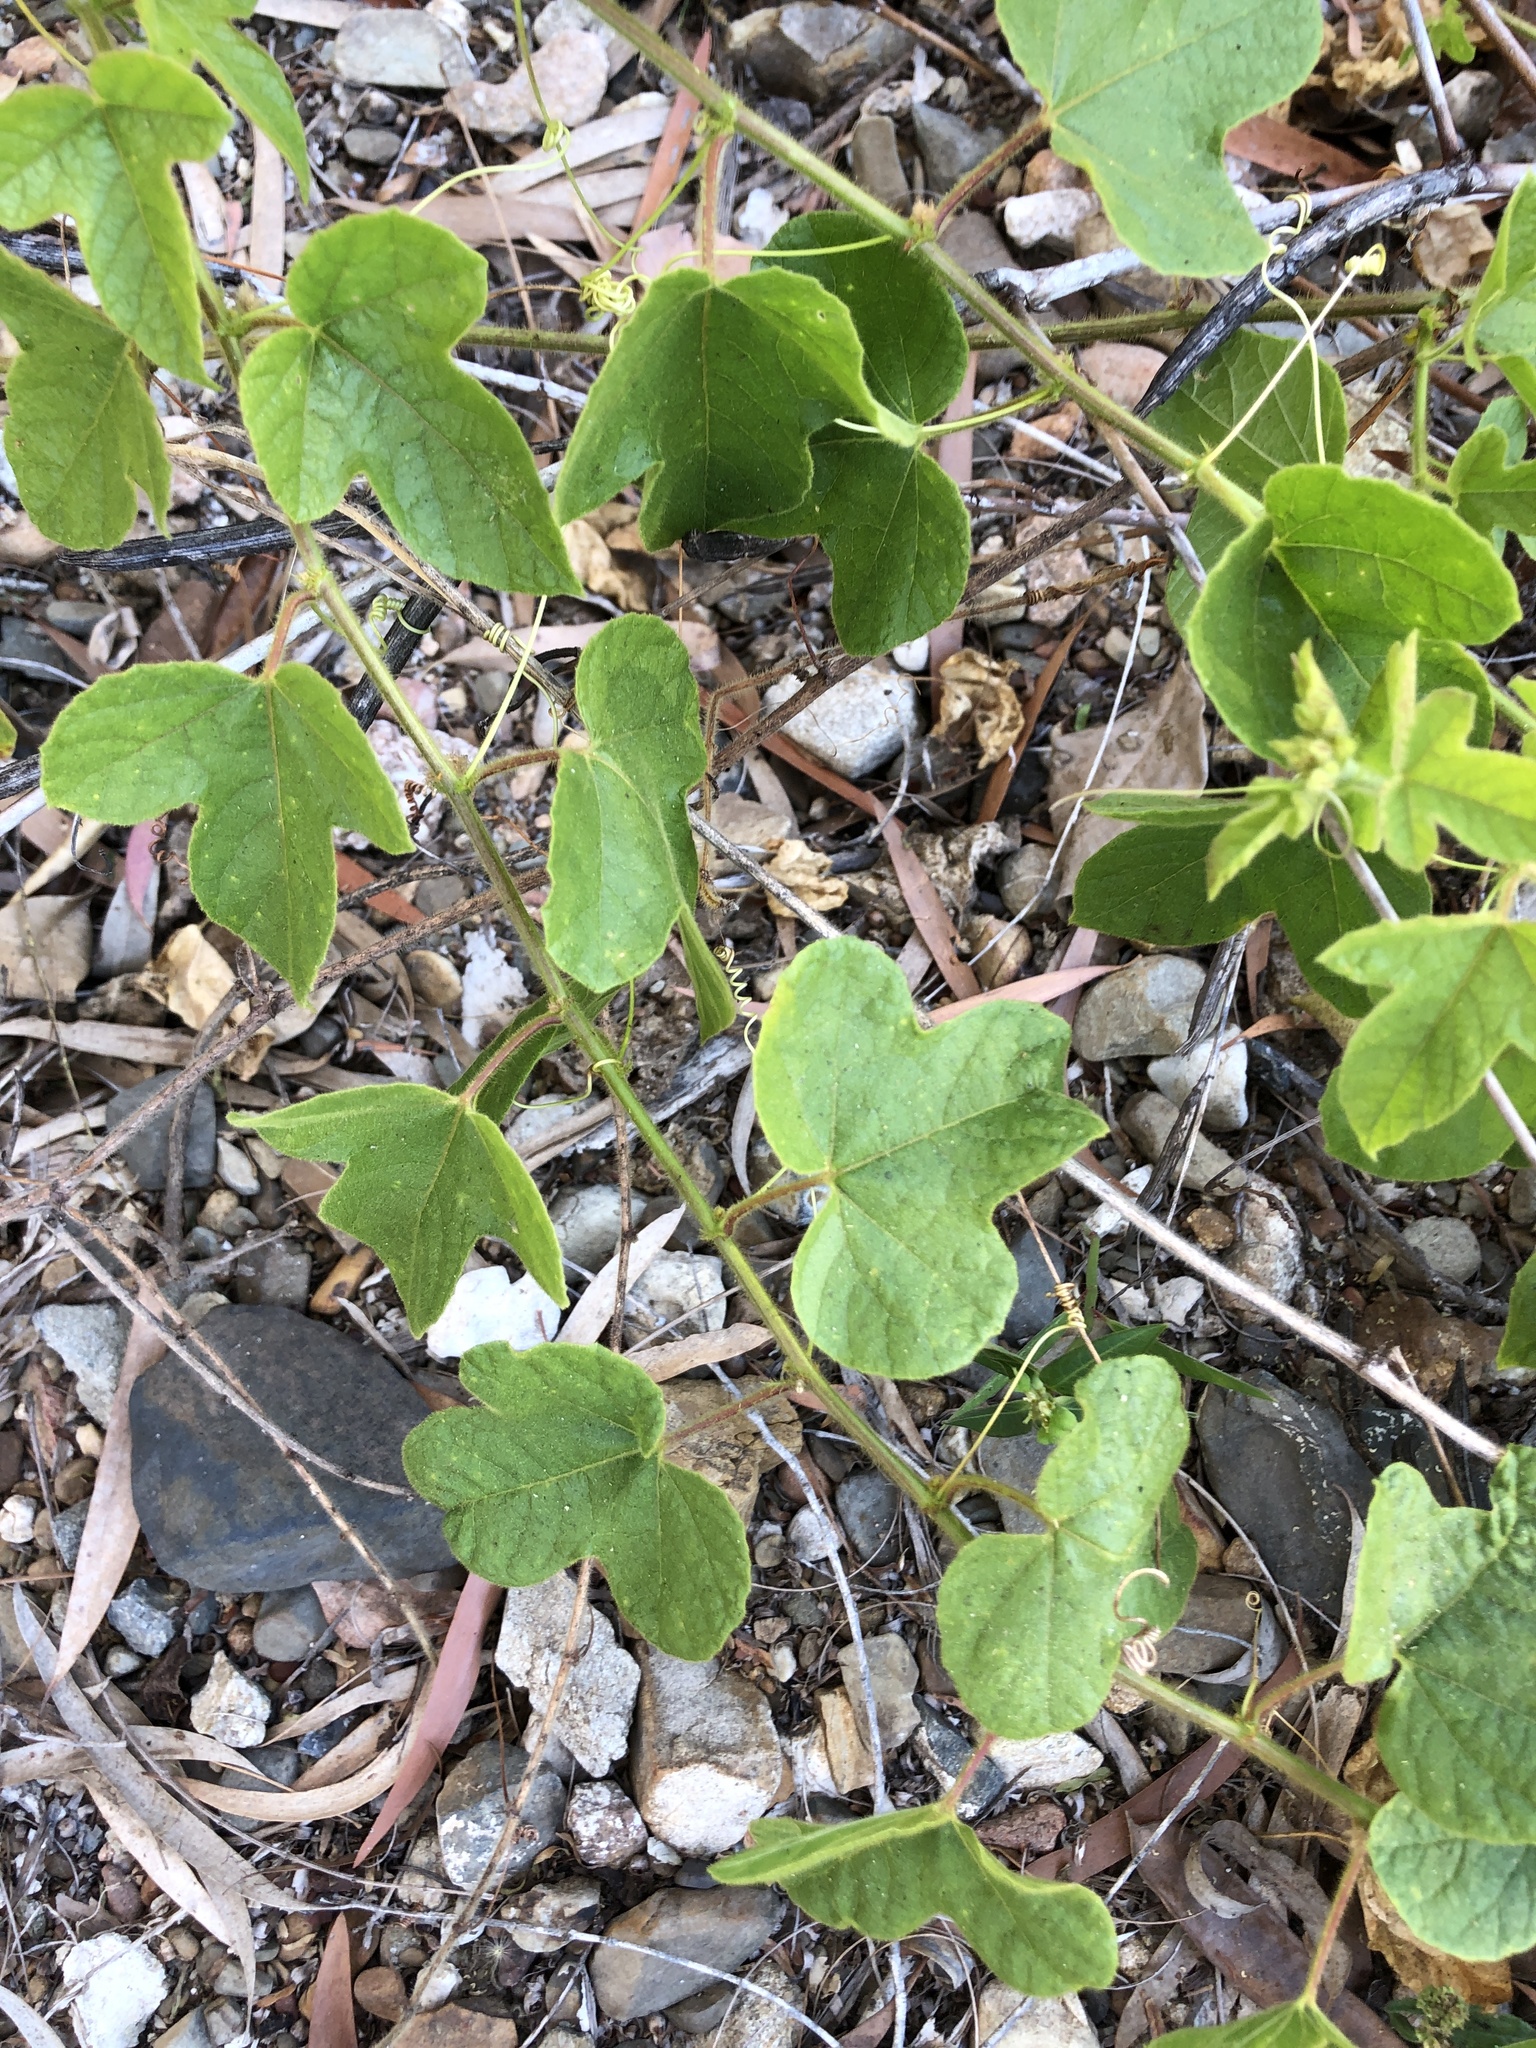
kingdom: Plantae
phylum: Tracheophyta
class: Magnoliopsida
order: Malpighiales
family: Passifloraceae
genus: Passiflora
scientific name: Passiflora foetida
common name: Fetid passionflower
